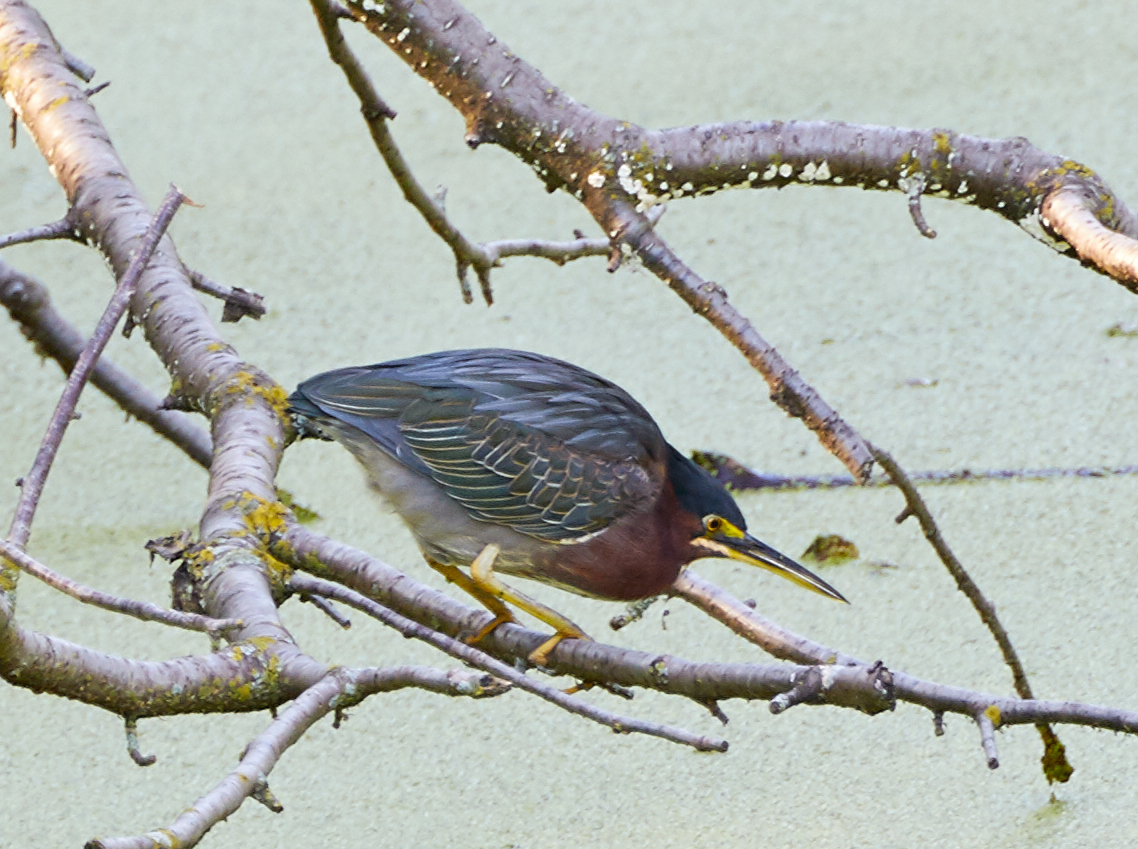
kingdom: Animalia
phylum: Chordata
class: Aves
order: Pelecaniformes
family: Ardeidae
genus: Butorides
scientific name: Butorides virescens
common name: Green heron
